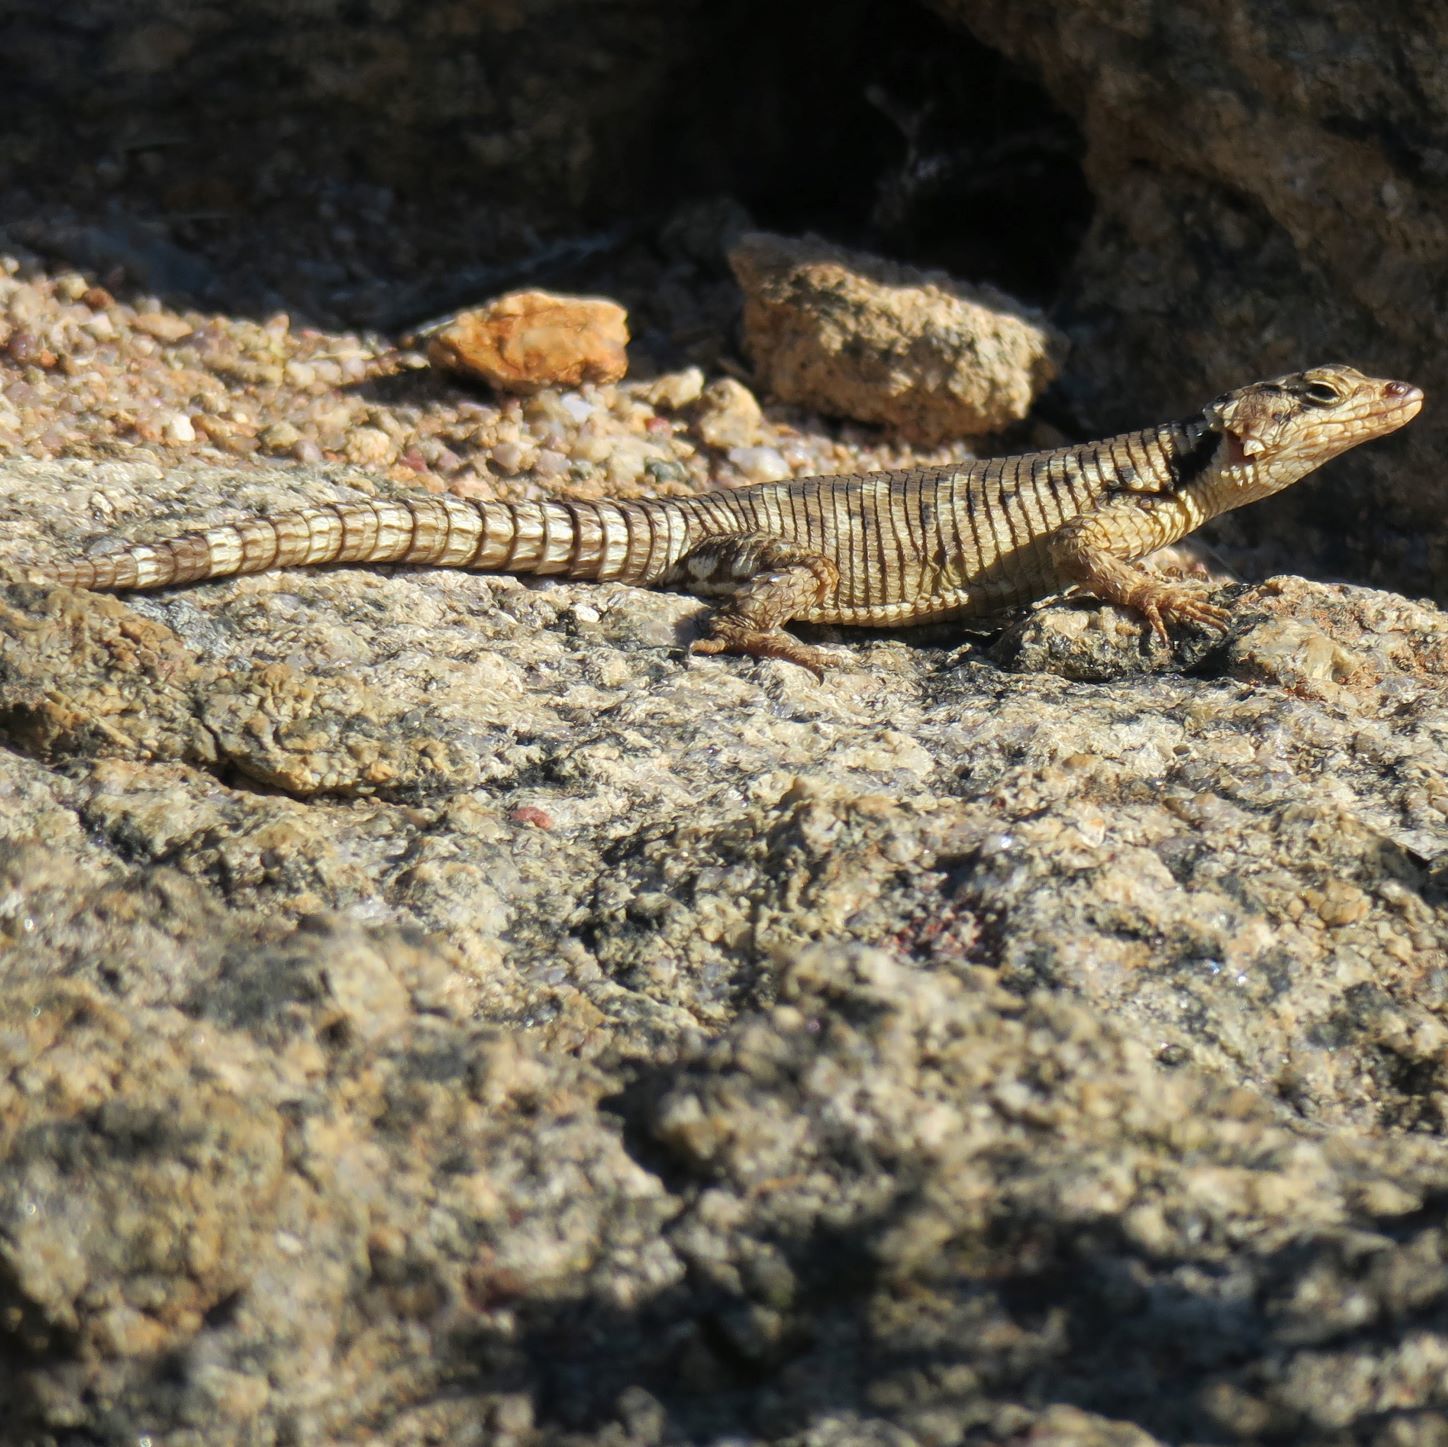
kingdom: Animalia
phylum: Chordata
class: Squamata
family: Cordylidae
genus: Karusasaurus
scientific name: Karusasaurus polyzonus
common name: Karoo girdled lizard
